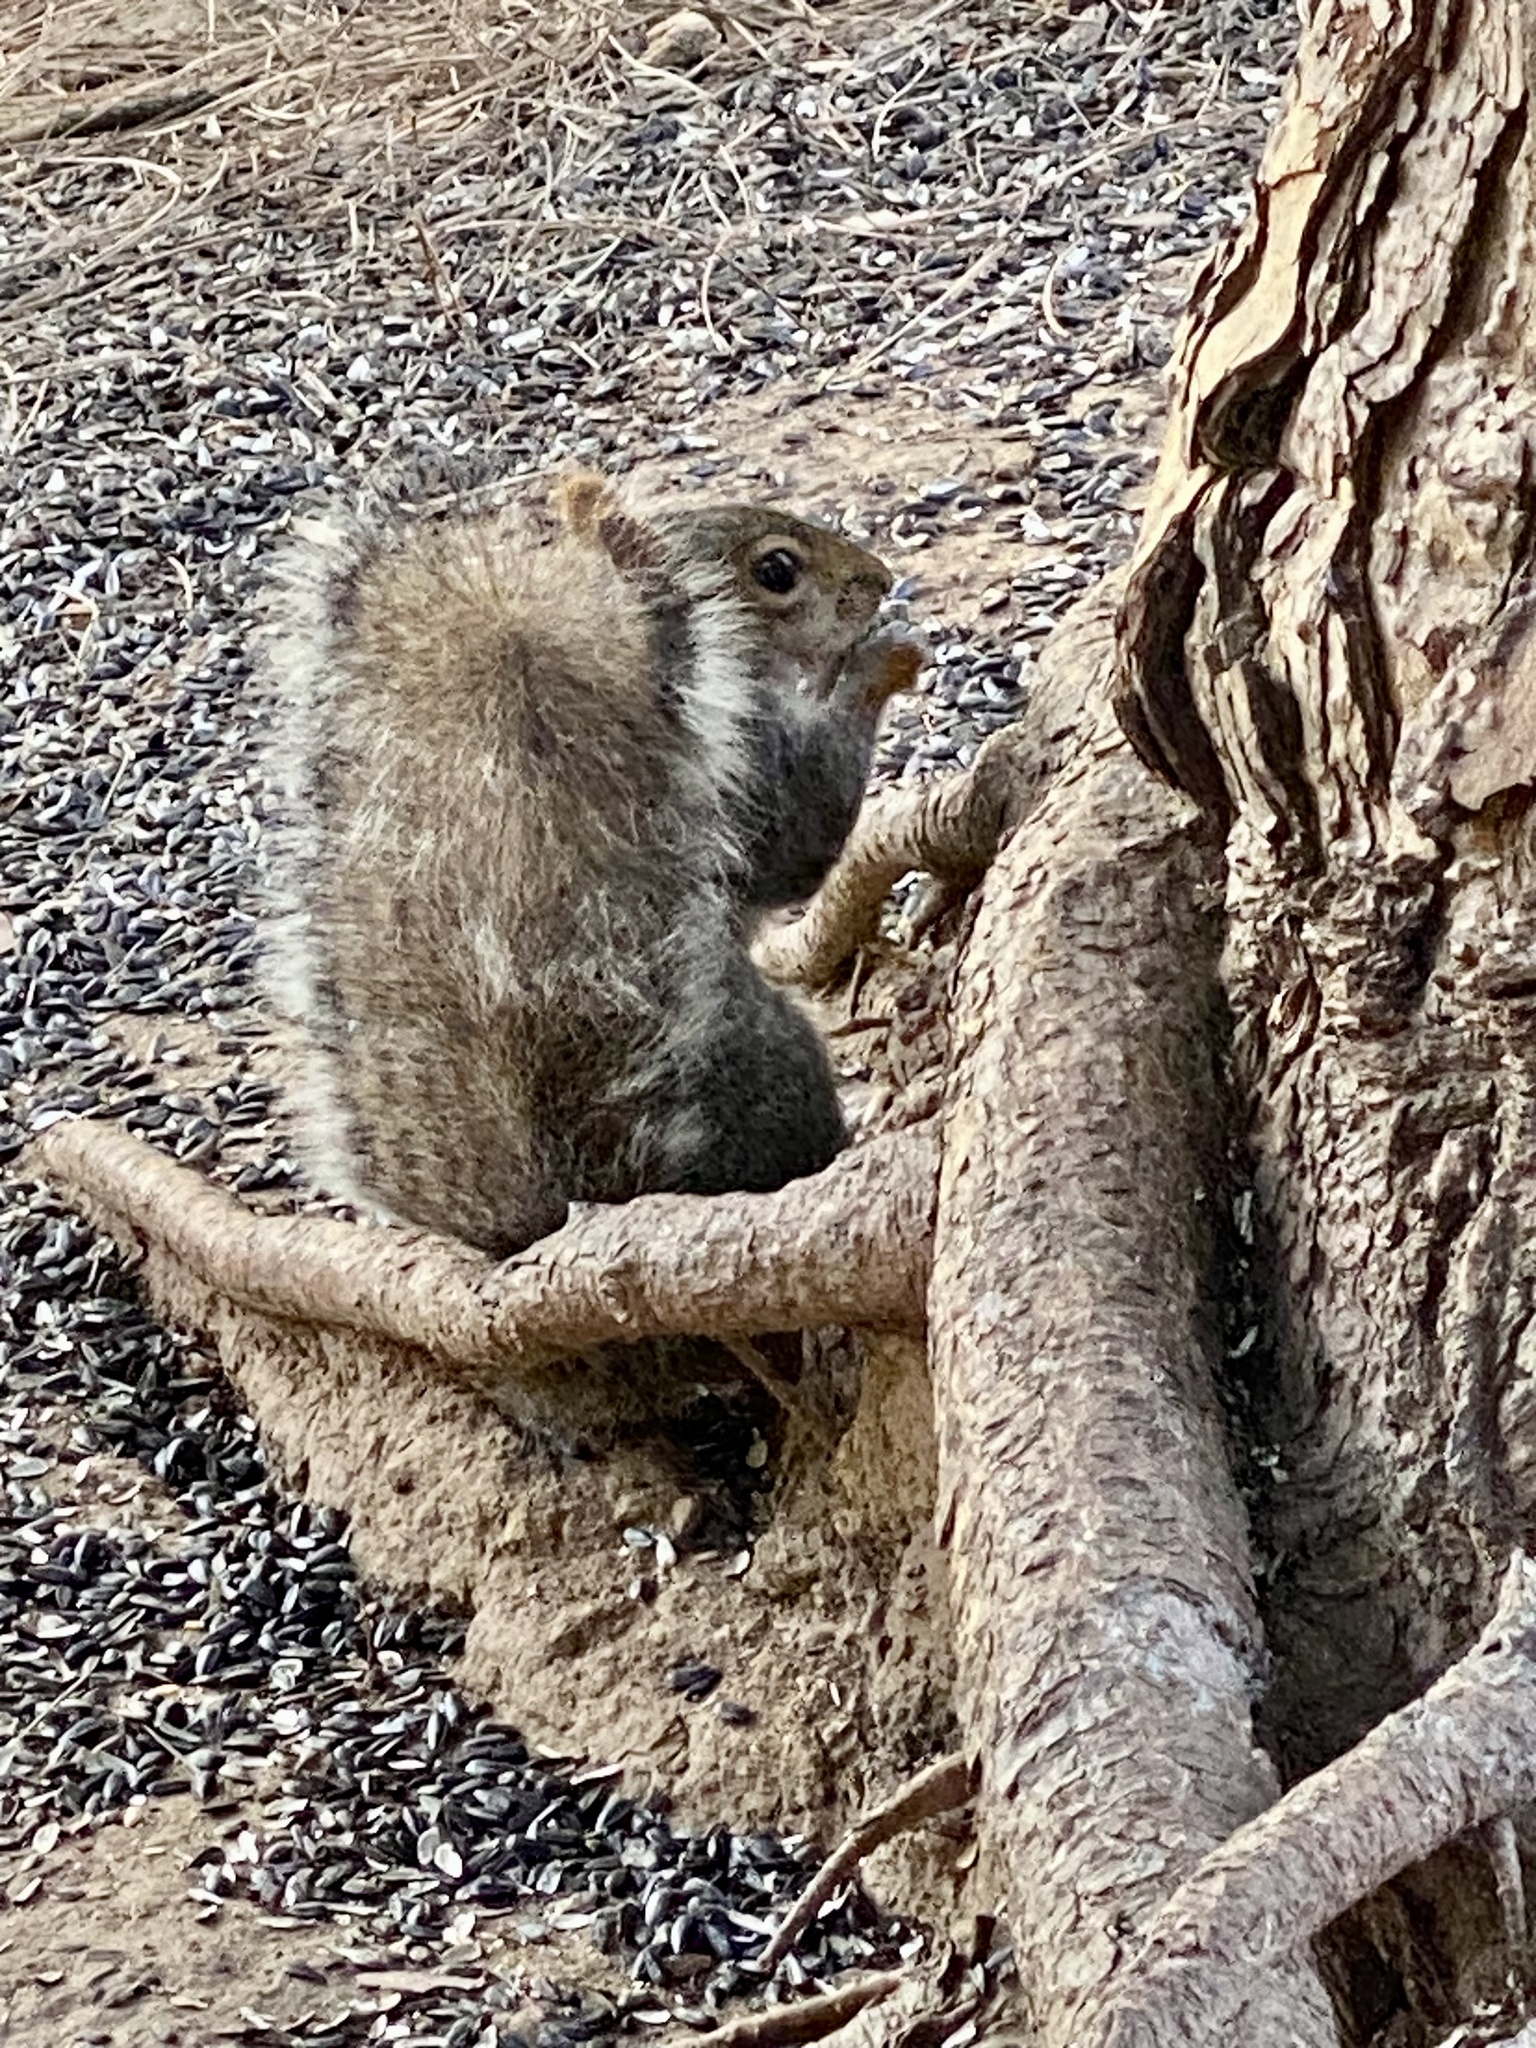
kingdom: Animalia
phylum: Chordata
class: Mammalia
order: Rodentia
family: Sciuridae
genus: Sciurus
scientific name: Sciurus carolinensis
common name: Eastern gray squirrel
